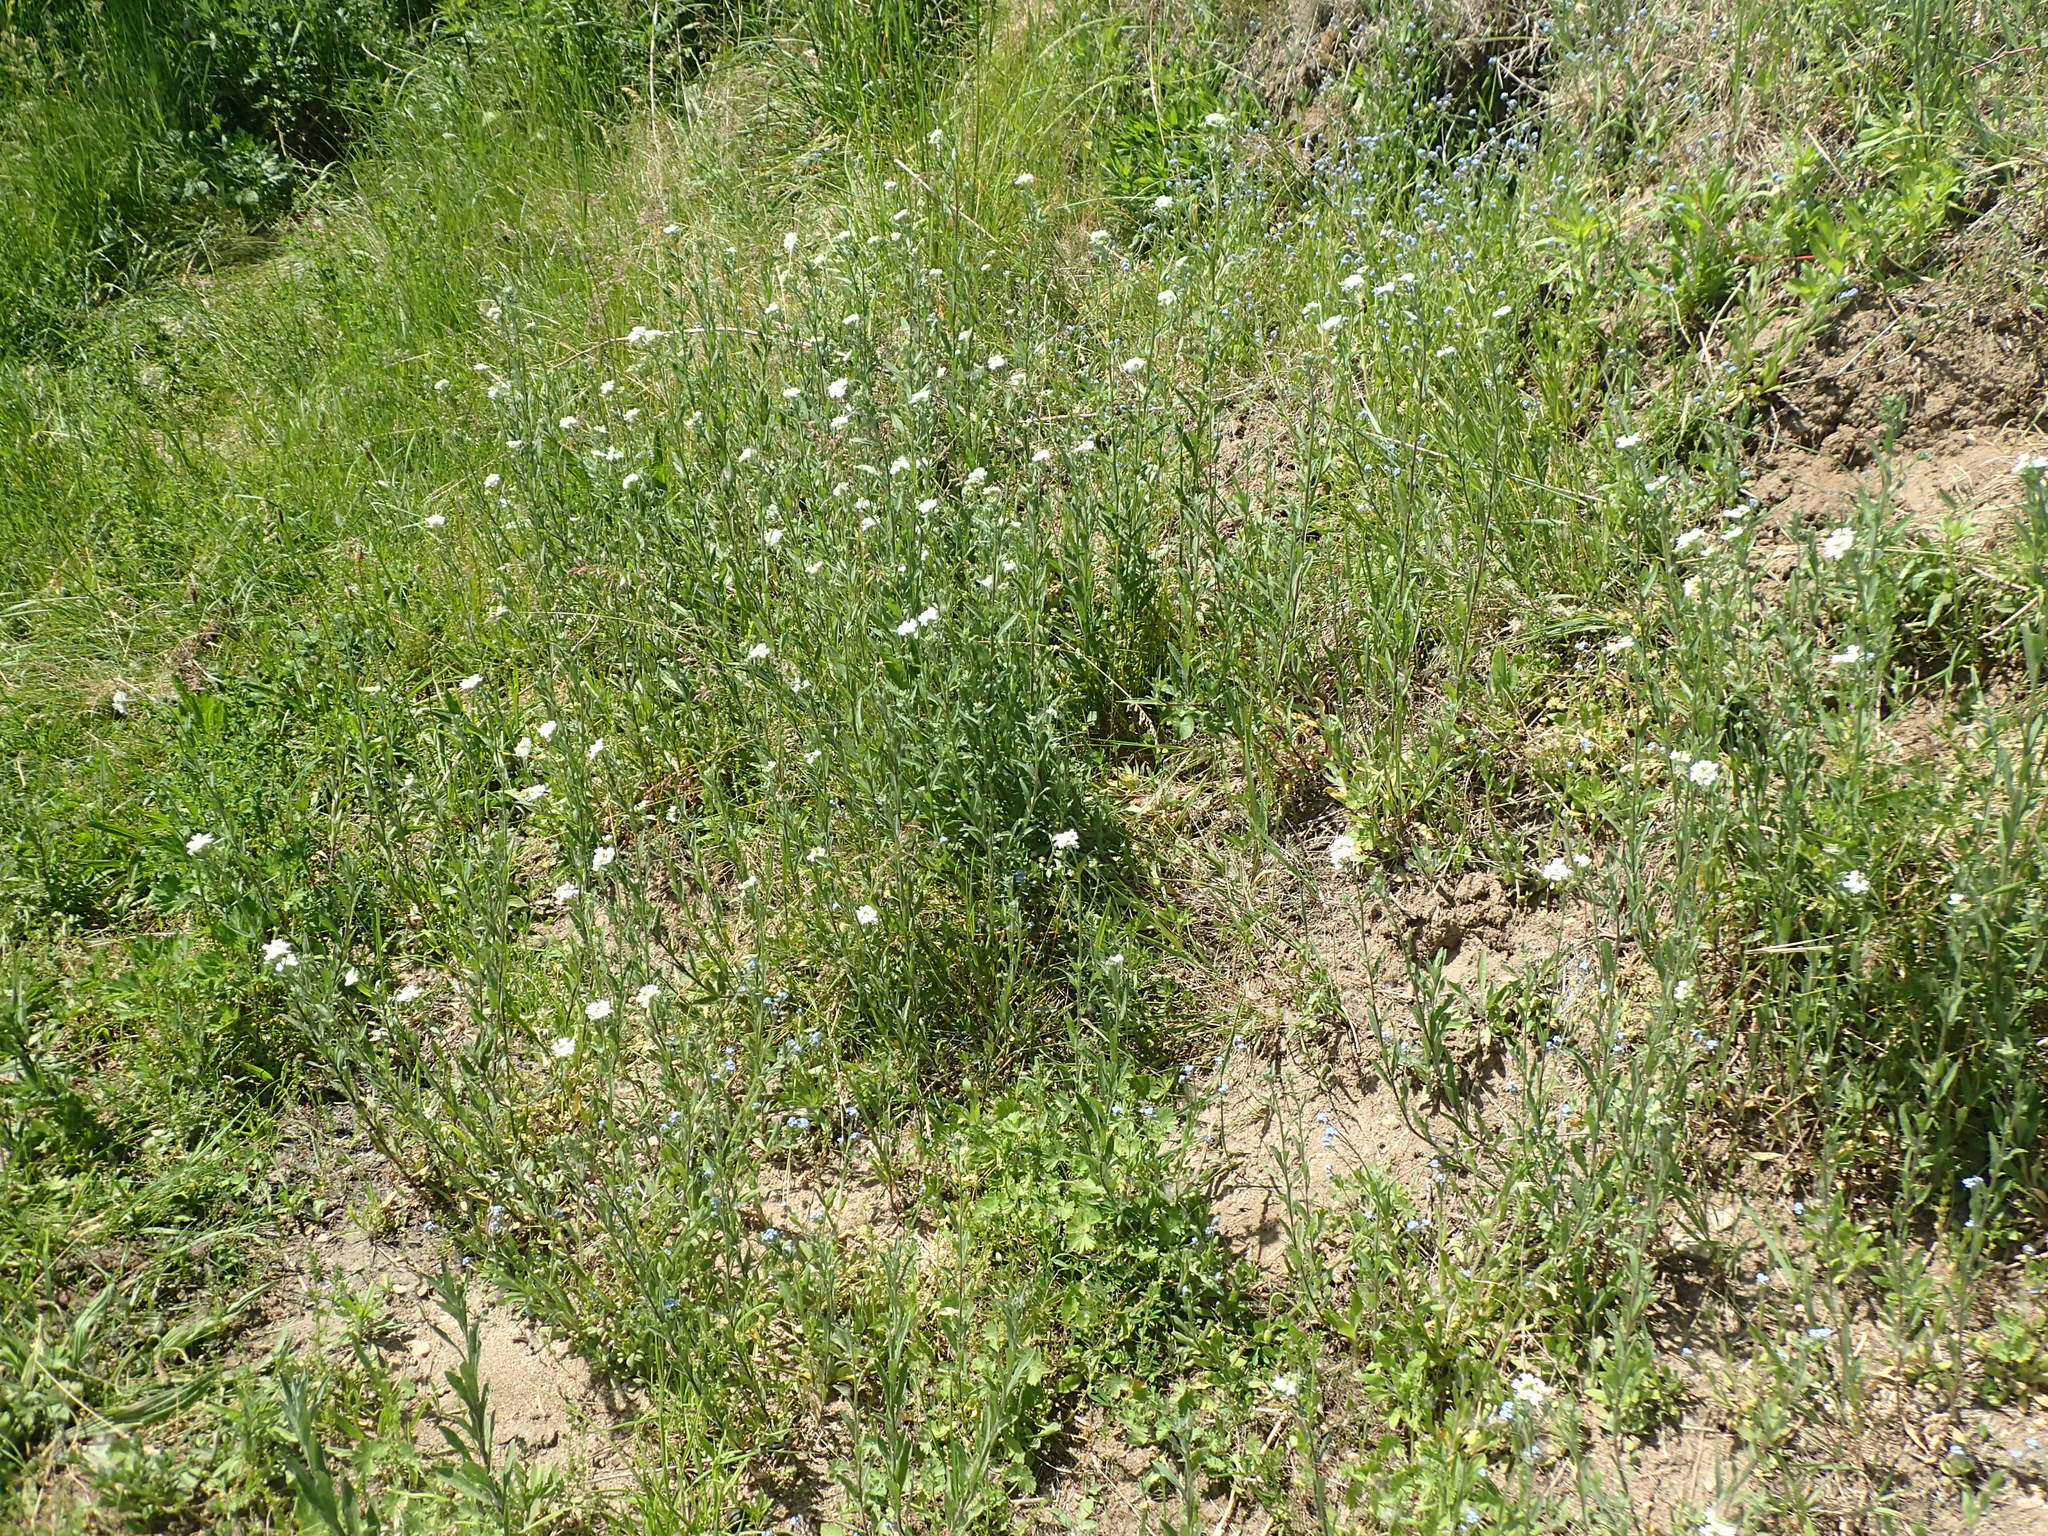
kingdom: Plantae
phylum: Tracheophyta
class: Magnoliopsida
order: Brassicales
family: Brassicaceae
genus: Berteroa
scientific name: Berteroa incana
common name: Hoary alison
